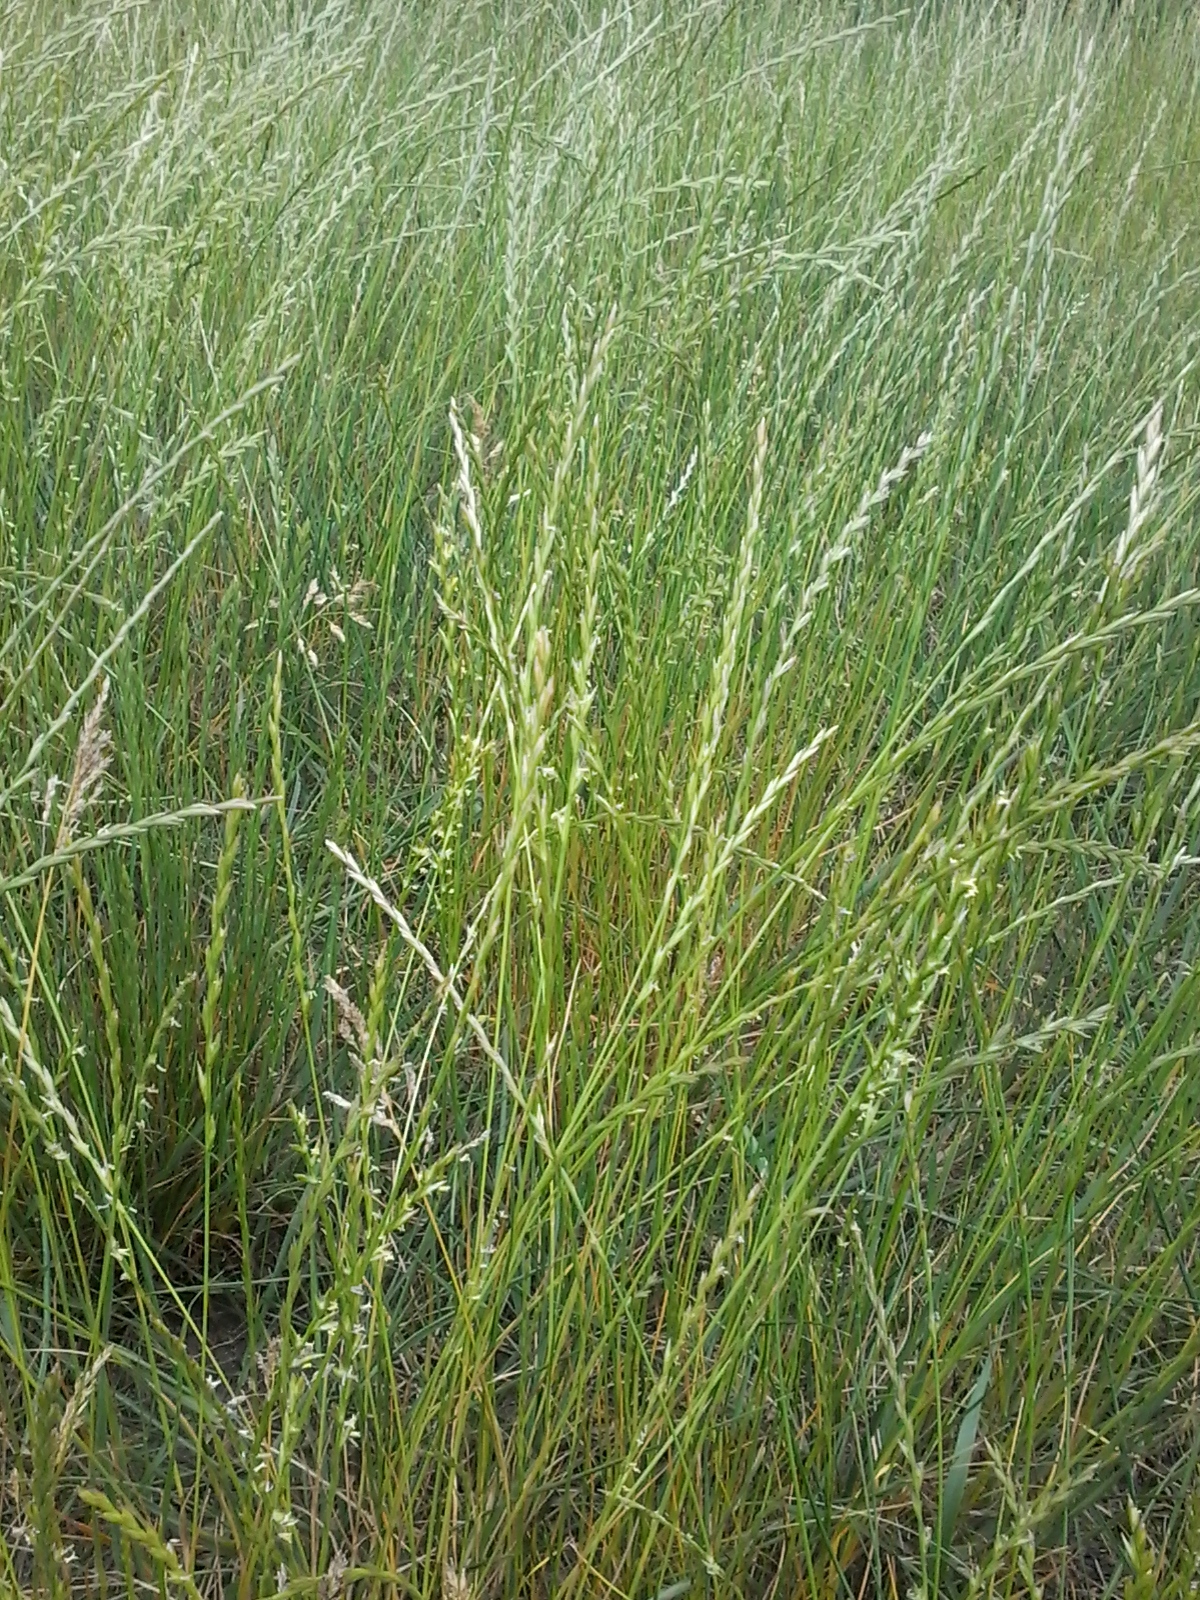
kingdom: Plantae
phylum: Tracheophyta
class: Liliopsida
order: Poales
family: Poaceae
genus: Lolium
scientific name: Lolium perenne
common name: Perennial ryegrass
